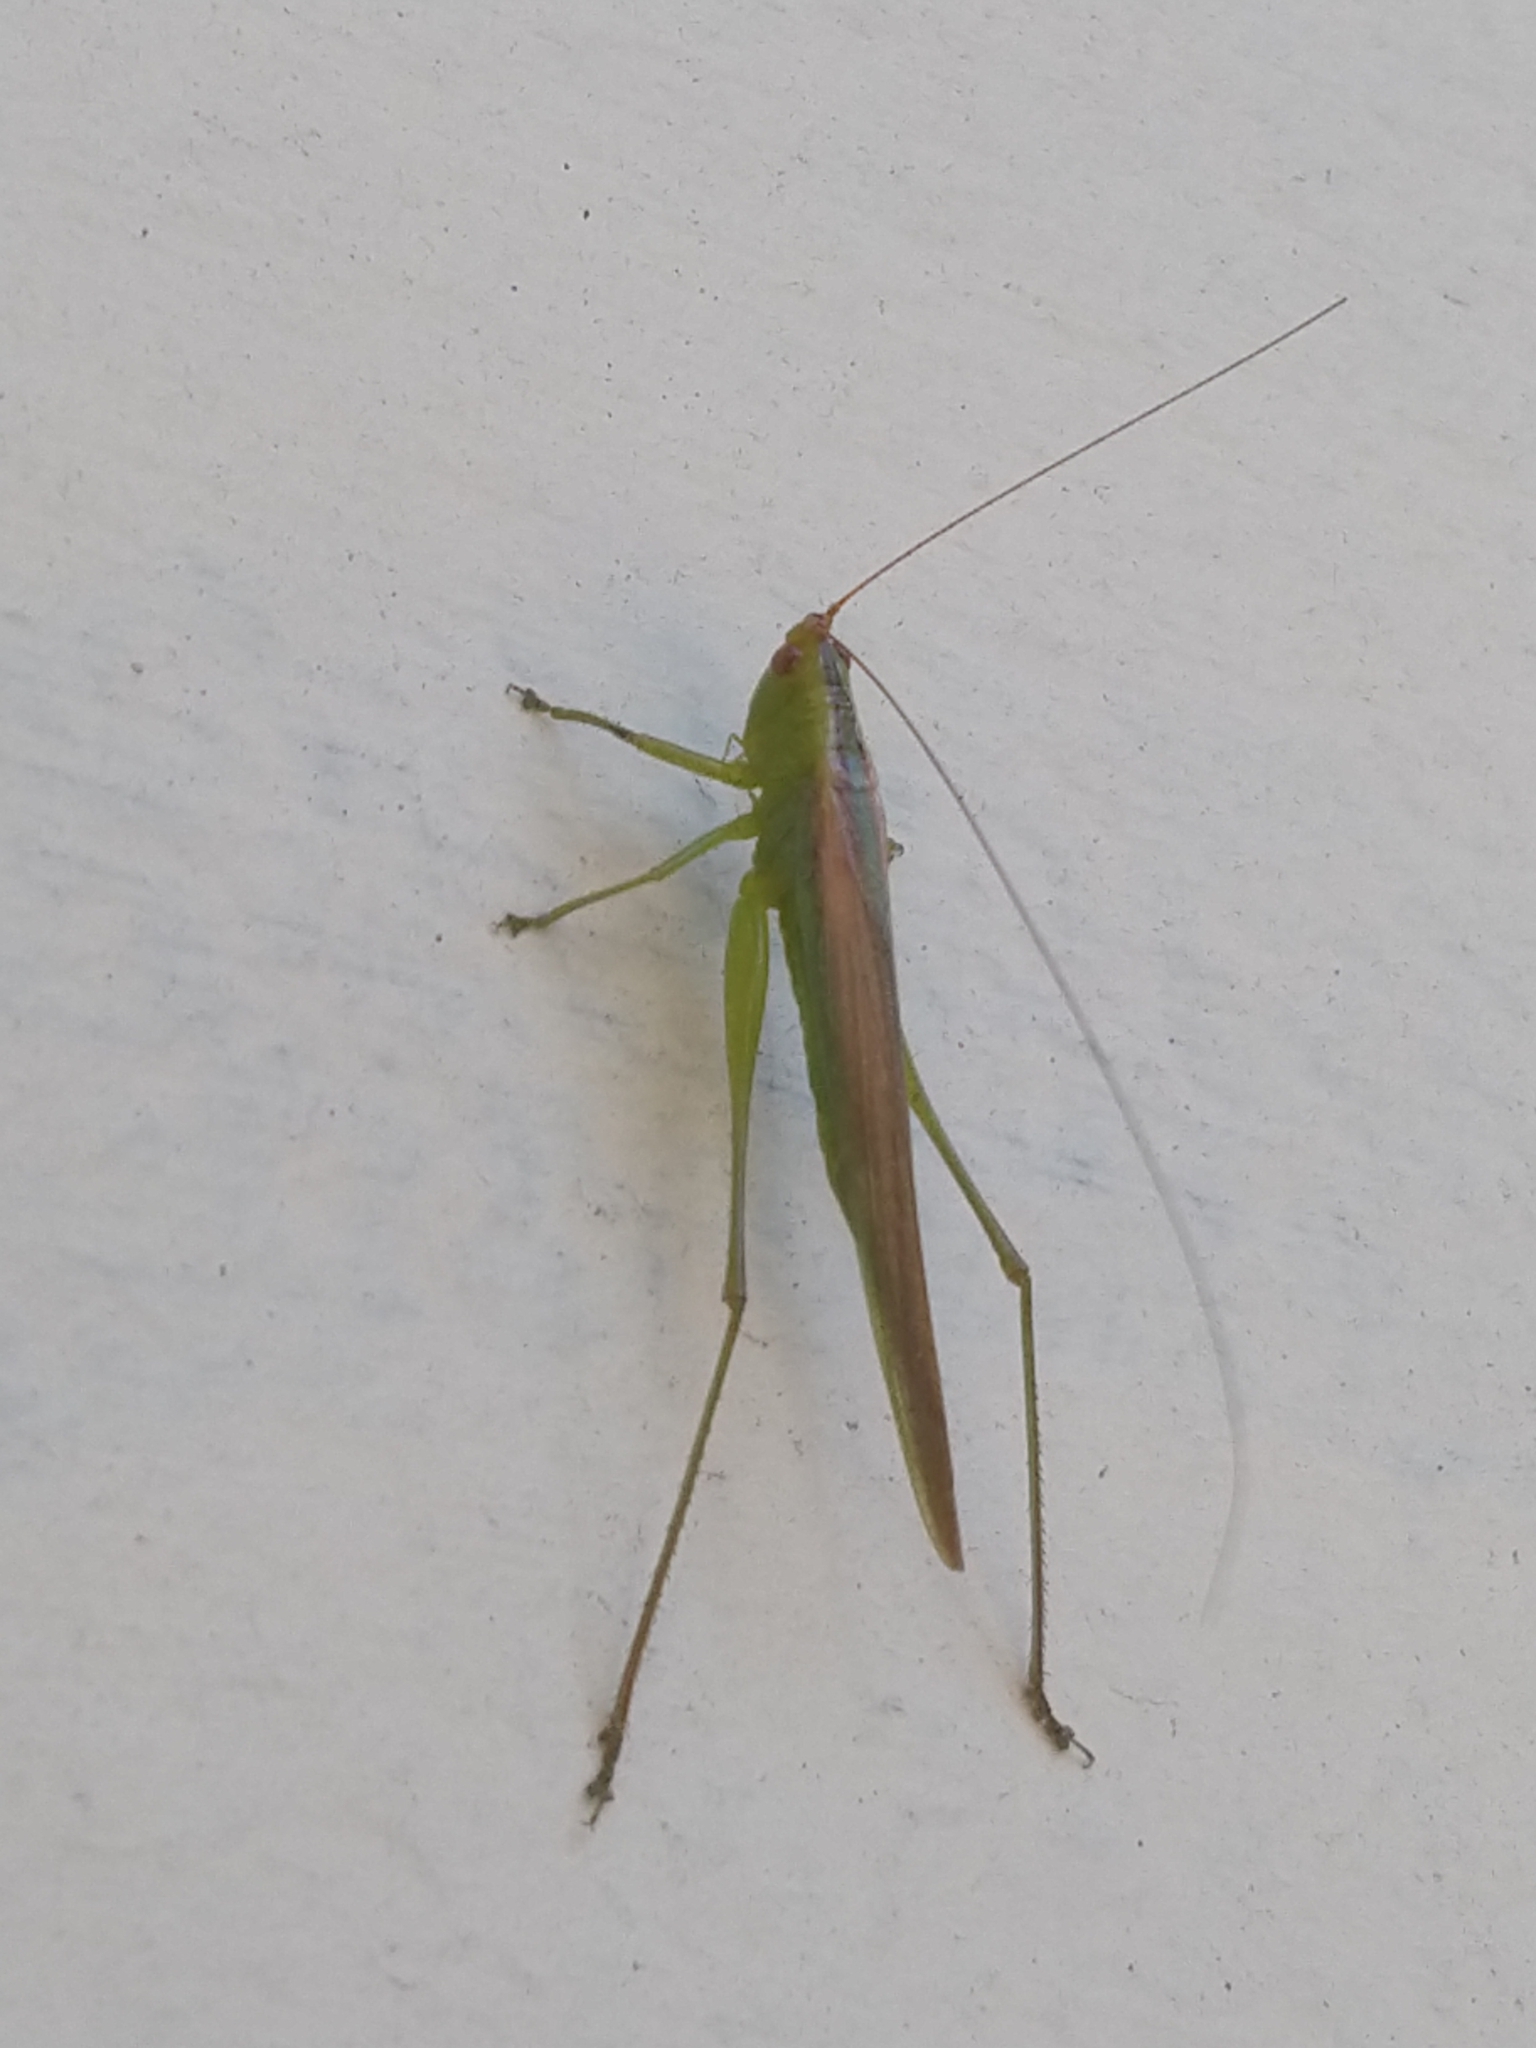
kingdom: Animalia
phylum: Arthropoda
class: Insecta
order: Orthoptera
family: Tettigoniidae
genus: Conocephalus
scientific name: Conocephalus longipes
